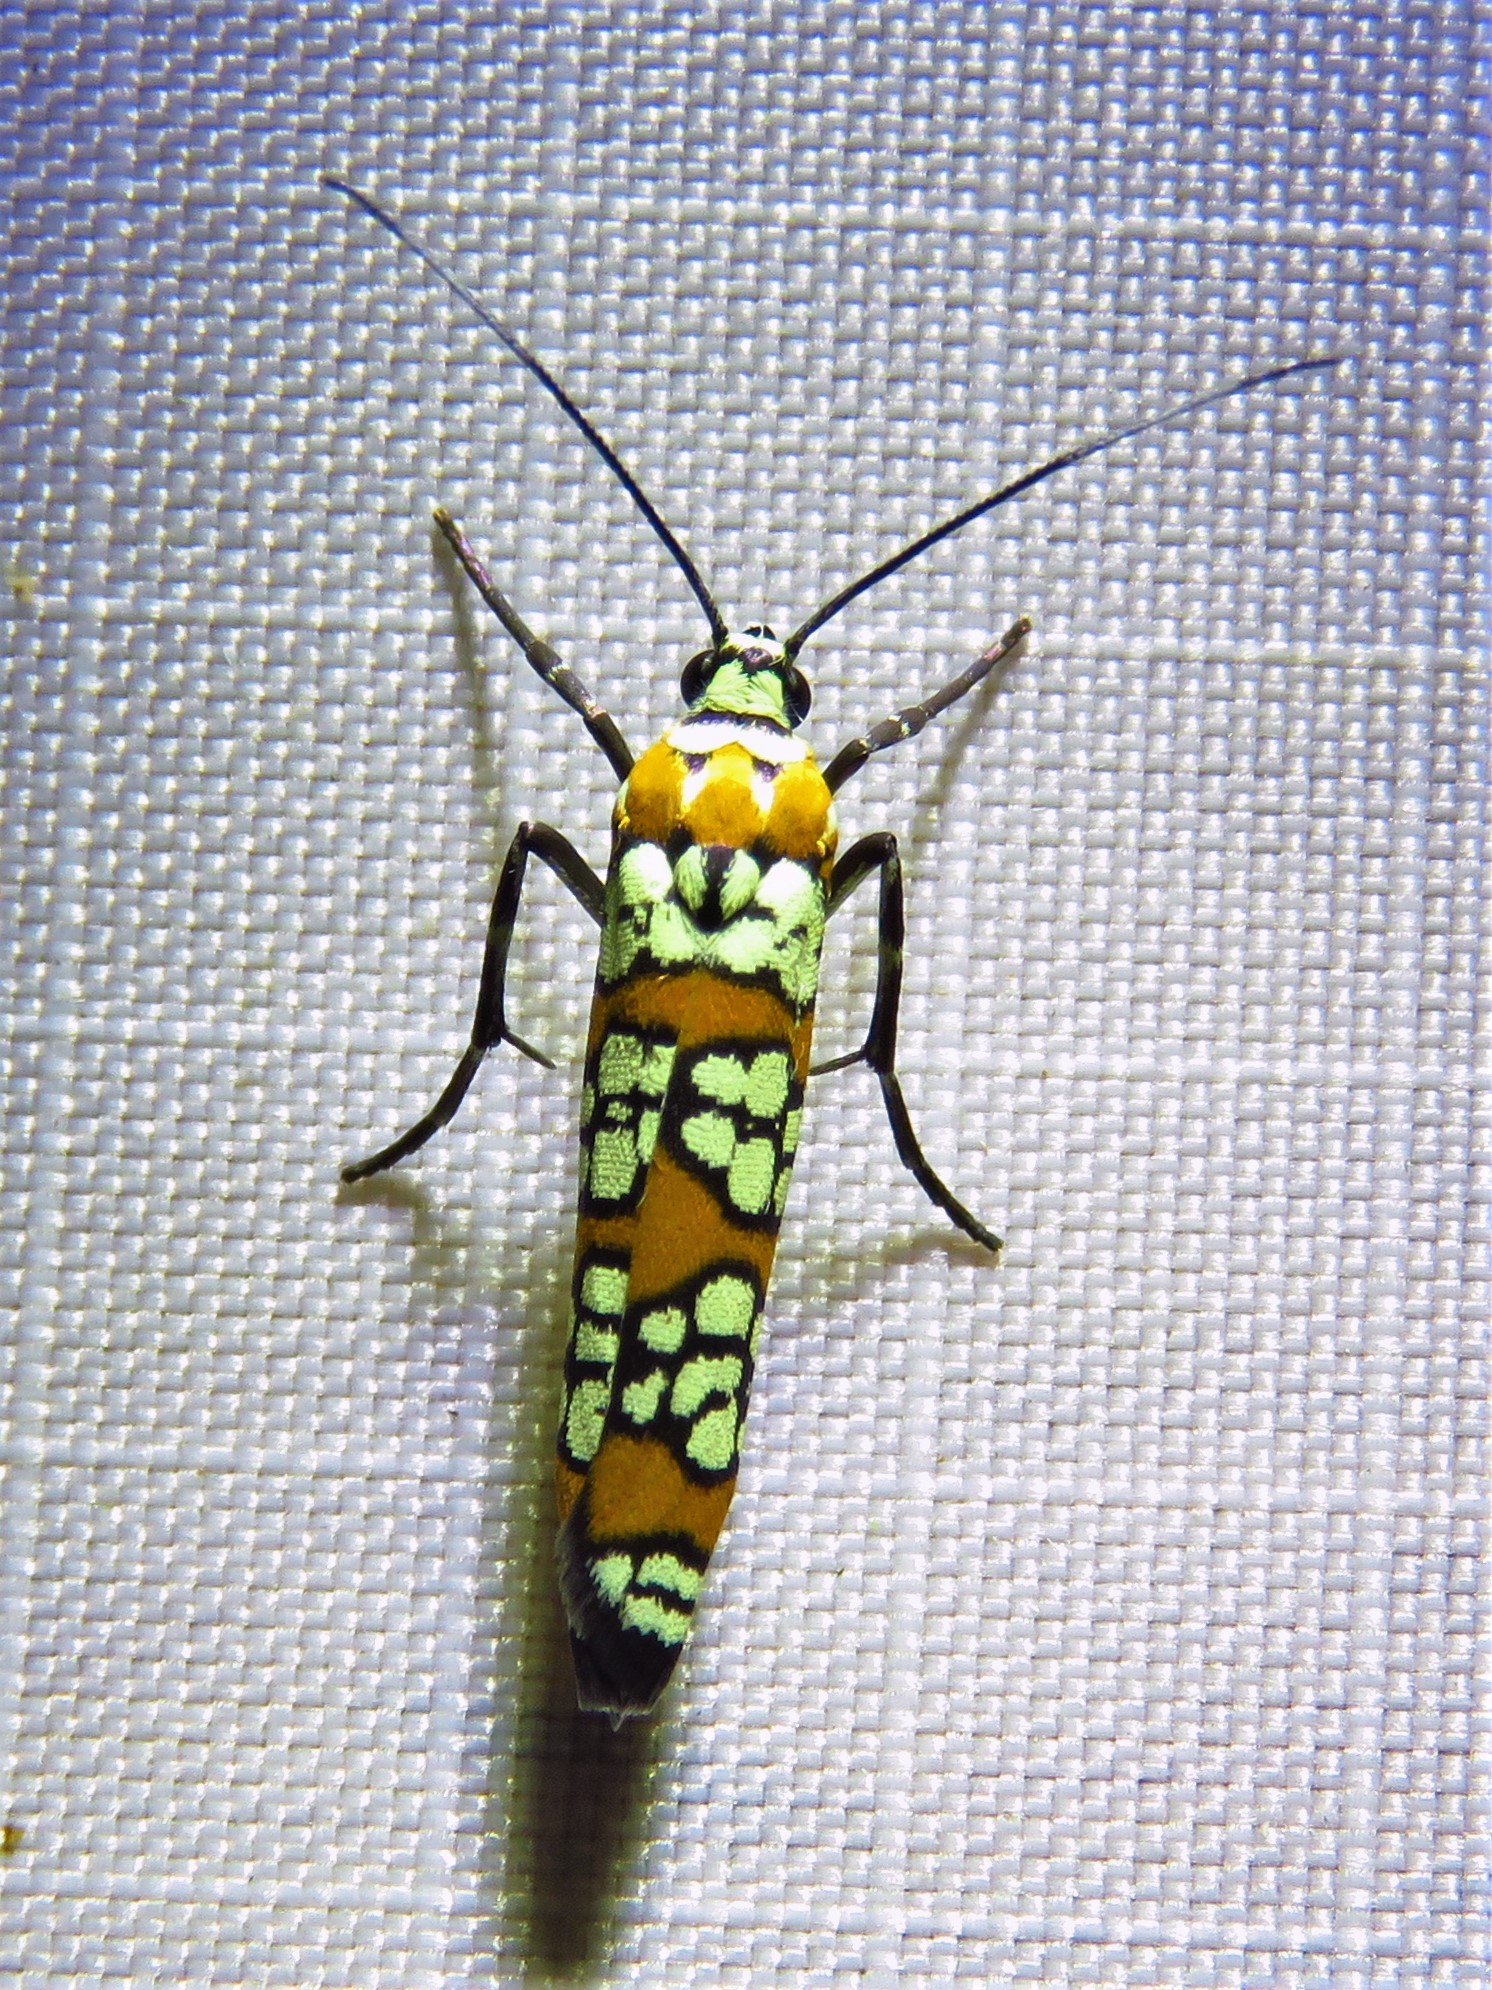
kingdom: Animalia
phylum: Arthropoda
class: Insecta
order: Lepidoptera
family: Attevidae
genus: Atteva
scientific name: Atteva punctella
